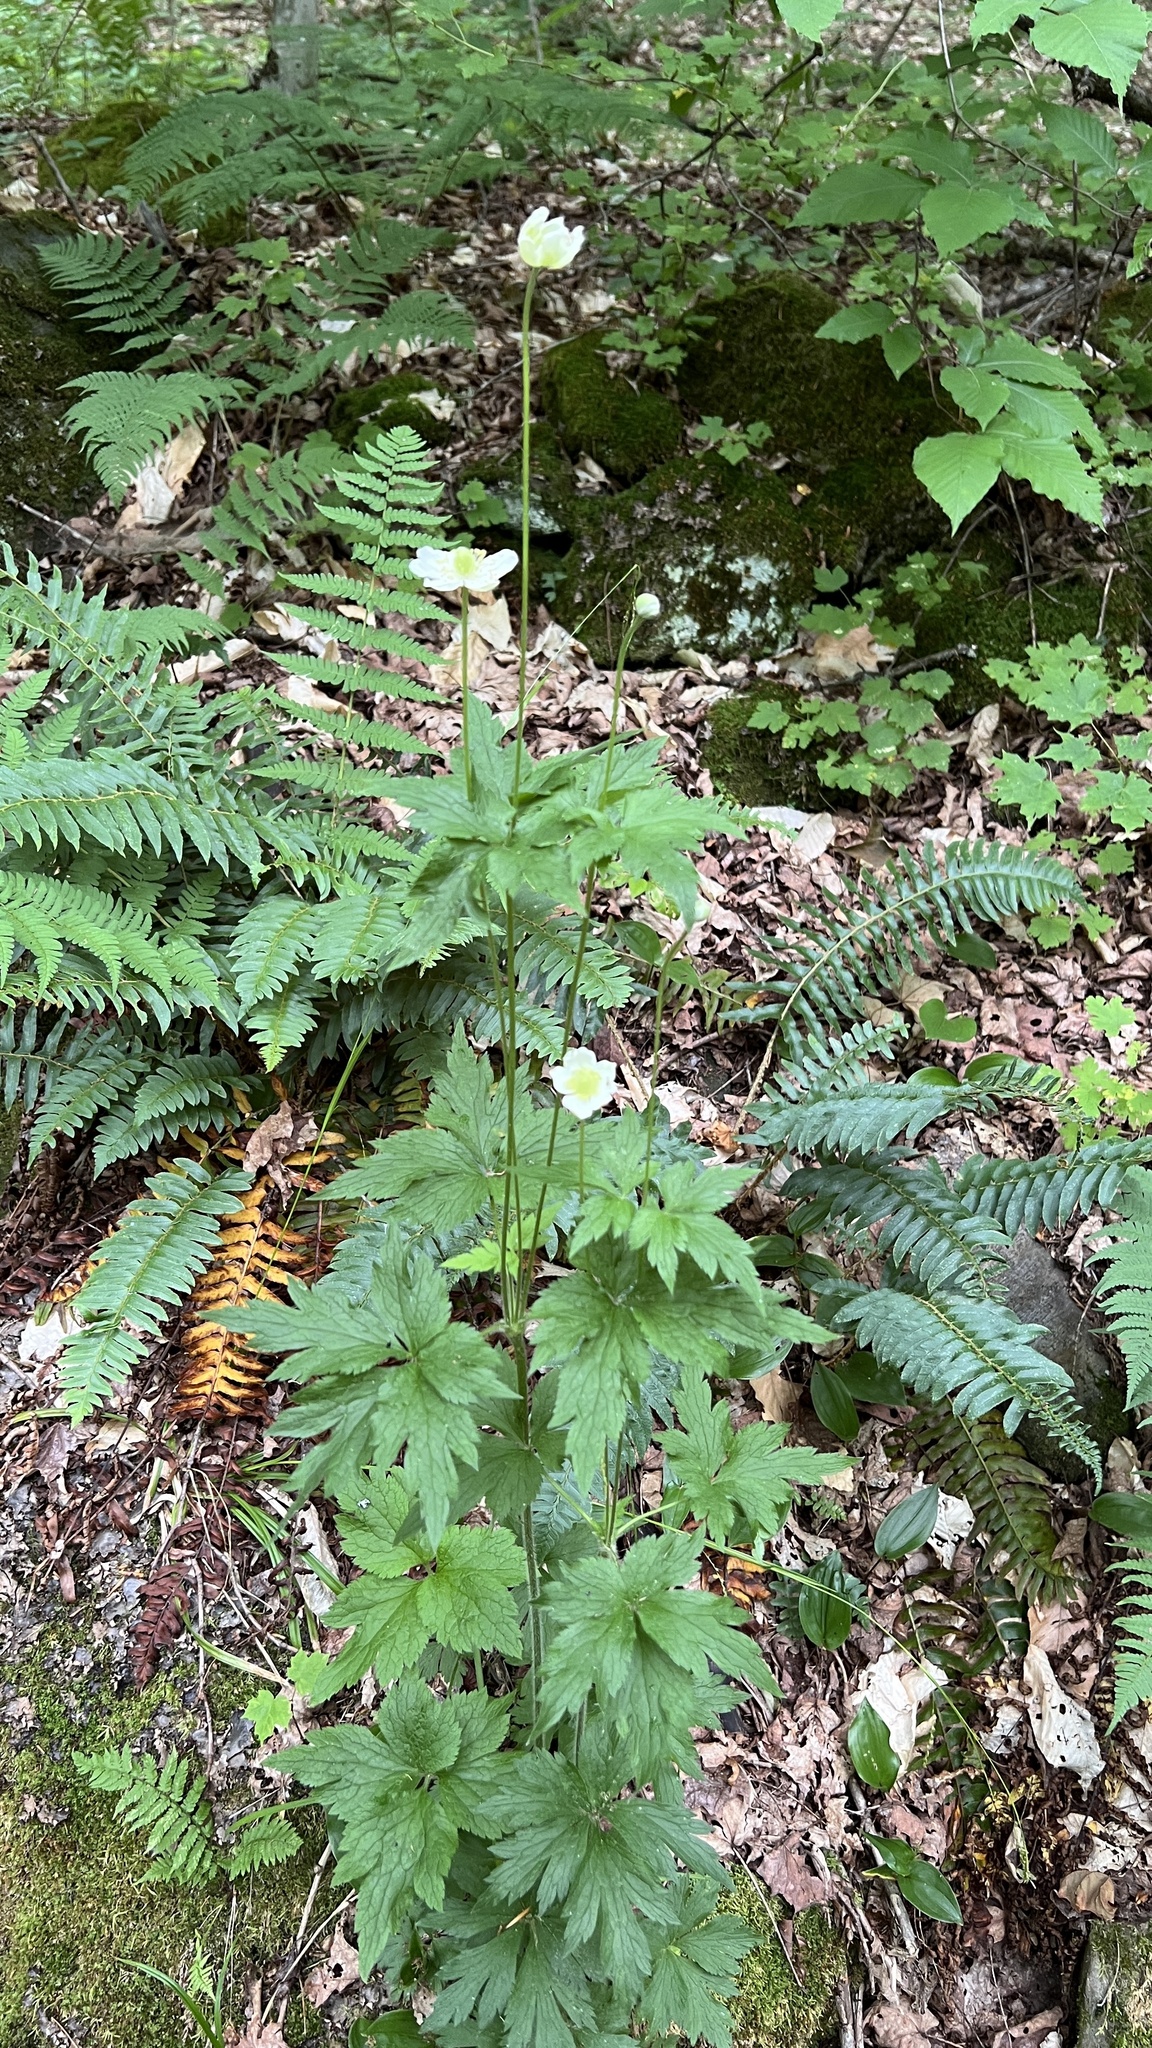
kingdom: Plantae
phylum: Tracheophyta
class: Magnoliopsida
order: Ranunculales
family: Ranunculaceae
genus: Anemone
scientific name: Anemone virginiana
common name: Tall anemone
